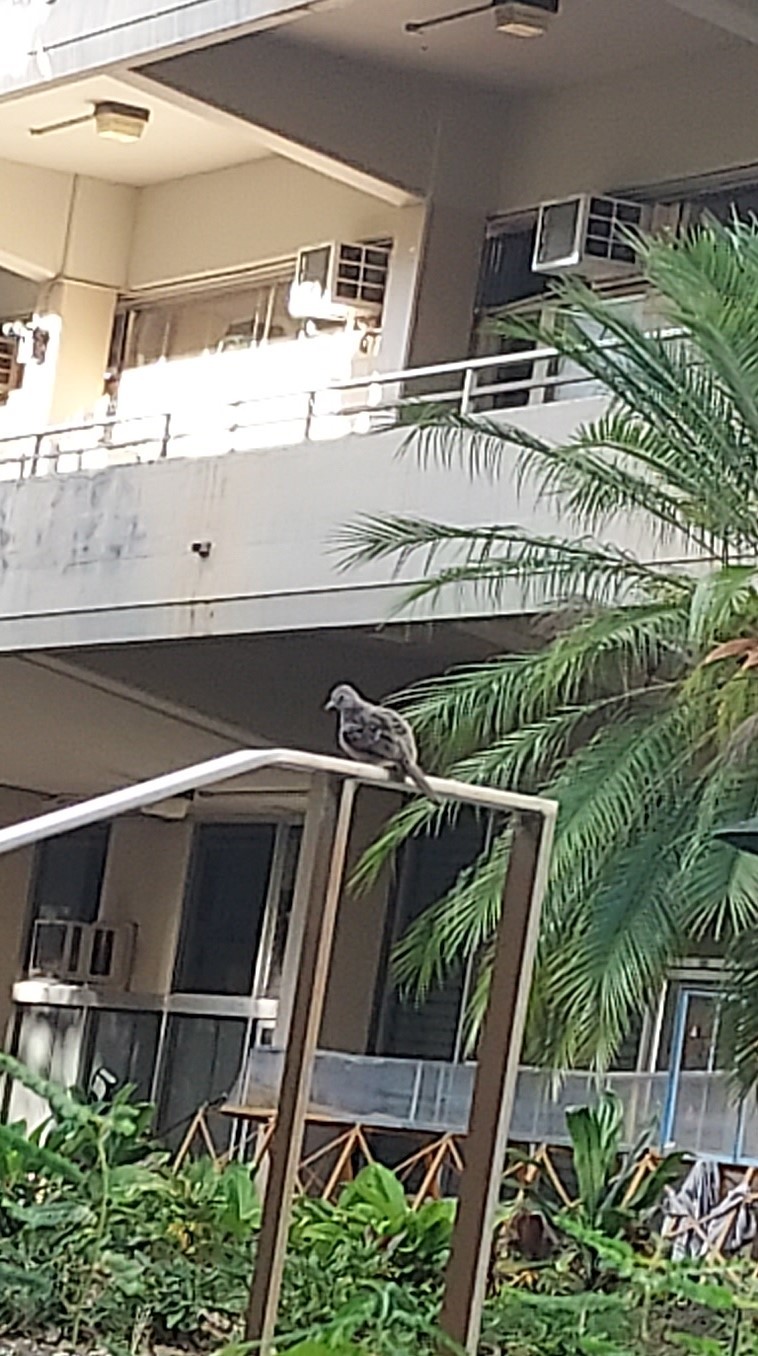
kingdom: Animalia
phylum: Chordata
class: Aves
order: Columbiformes
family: Columbidae
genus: Geopelia
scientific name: Geopelia striata
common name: Zebra dove
